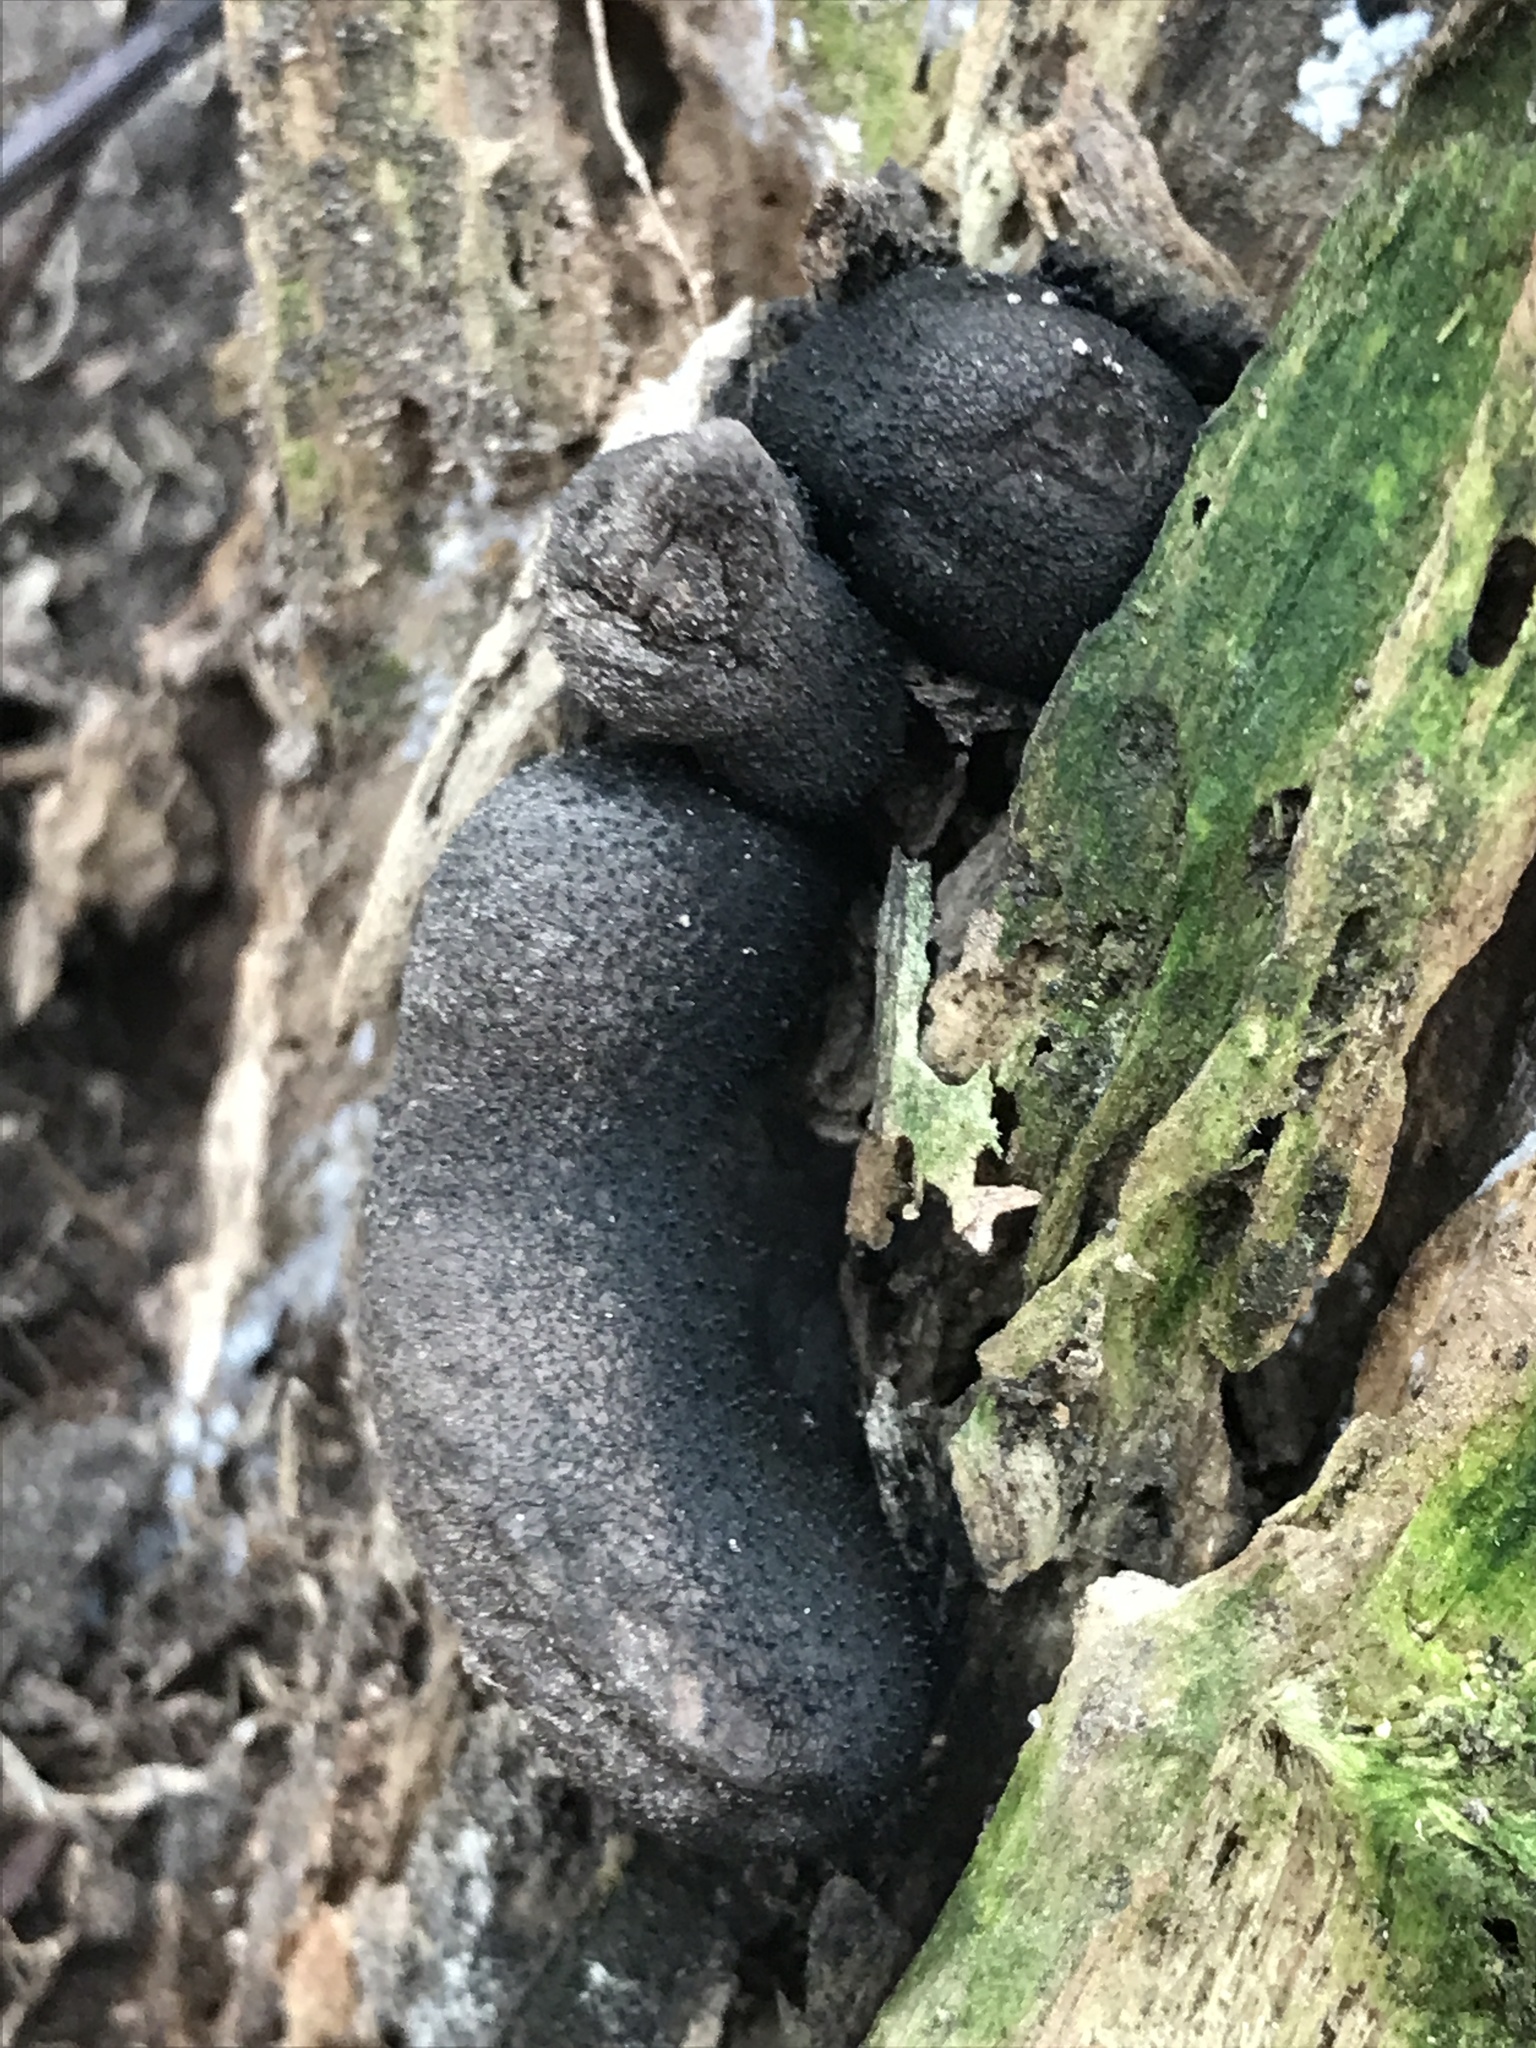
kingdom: Fungi
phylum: Ascomycota
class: Sordariomycetes
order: Xylariales
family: Xylariaceae
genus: Xylaria
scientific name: Xylaria polymorpha
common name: Dead man's fingers
